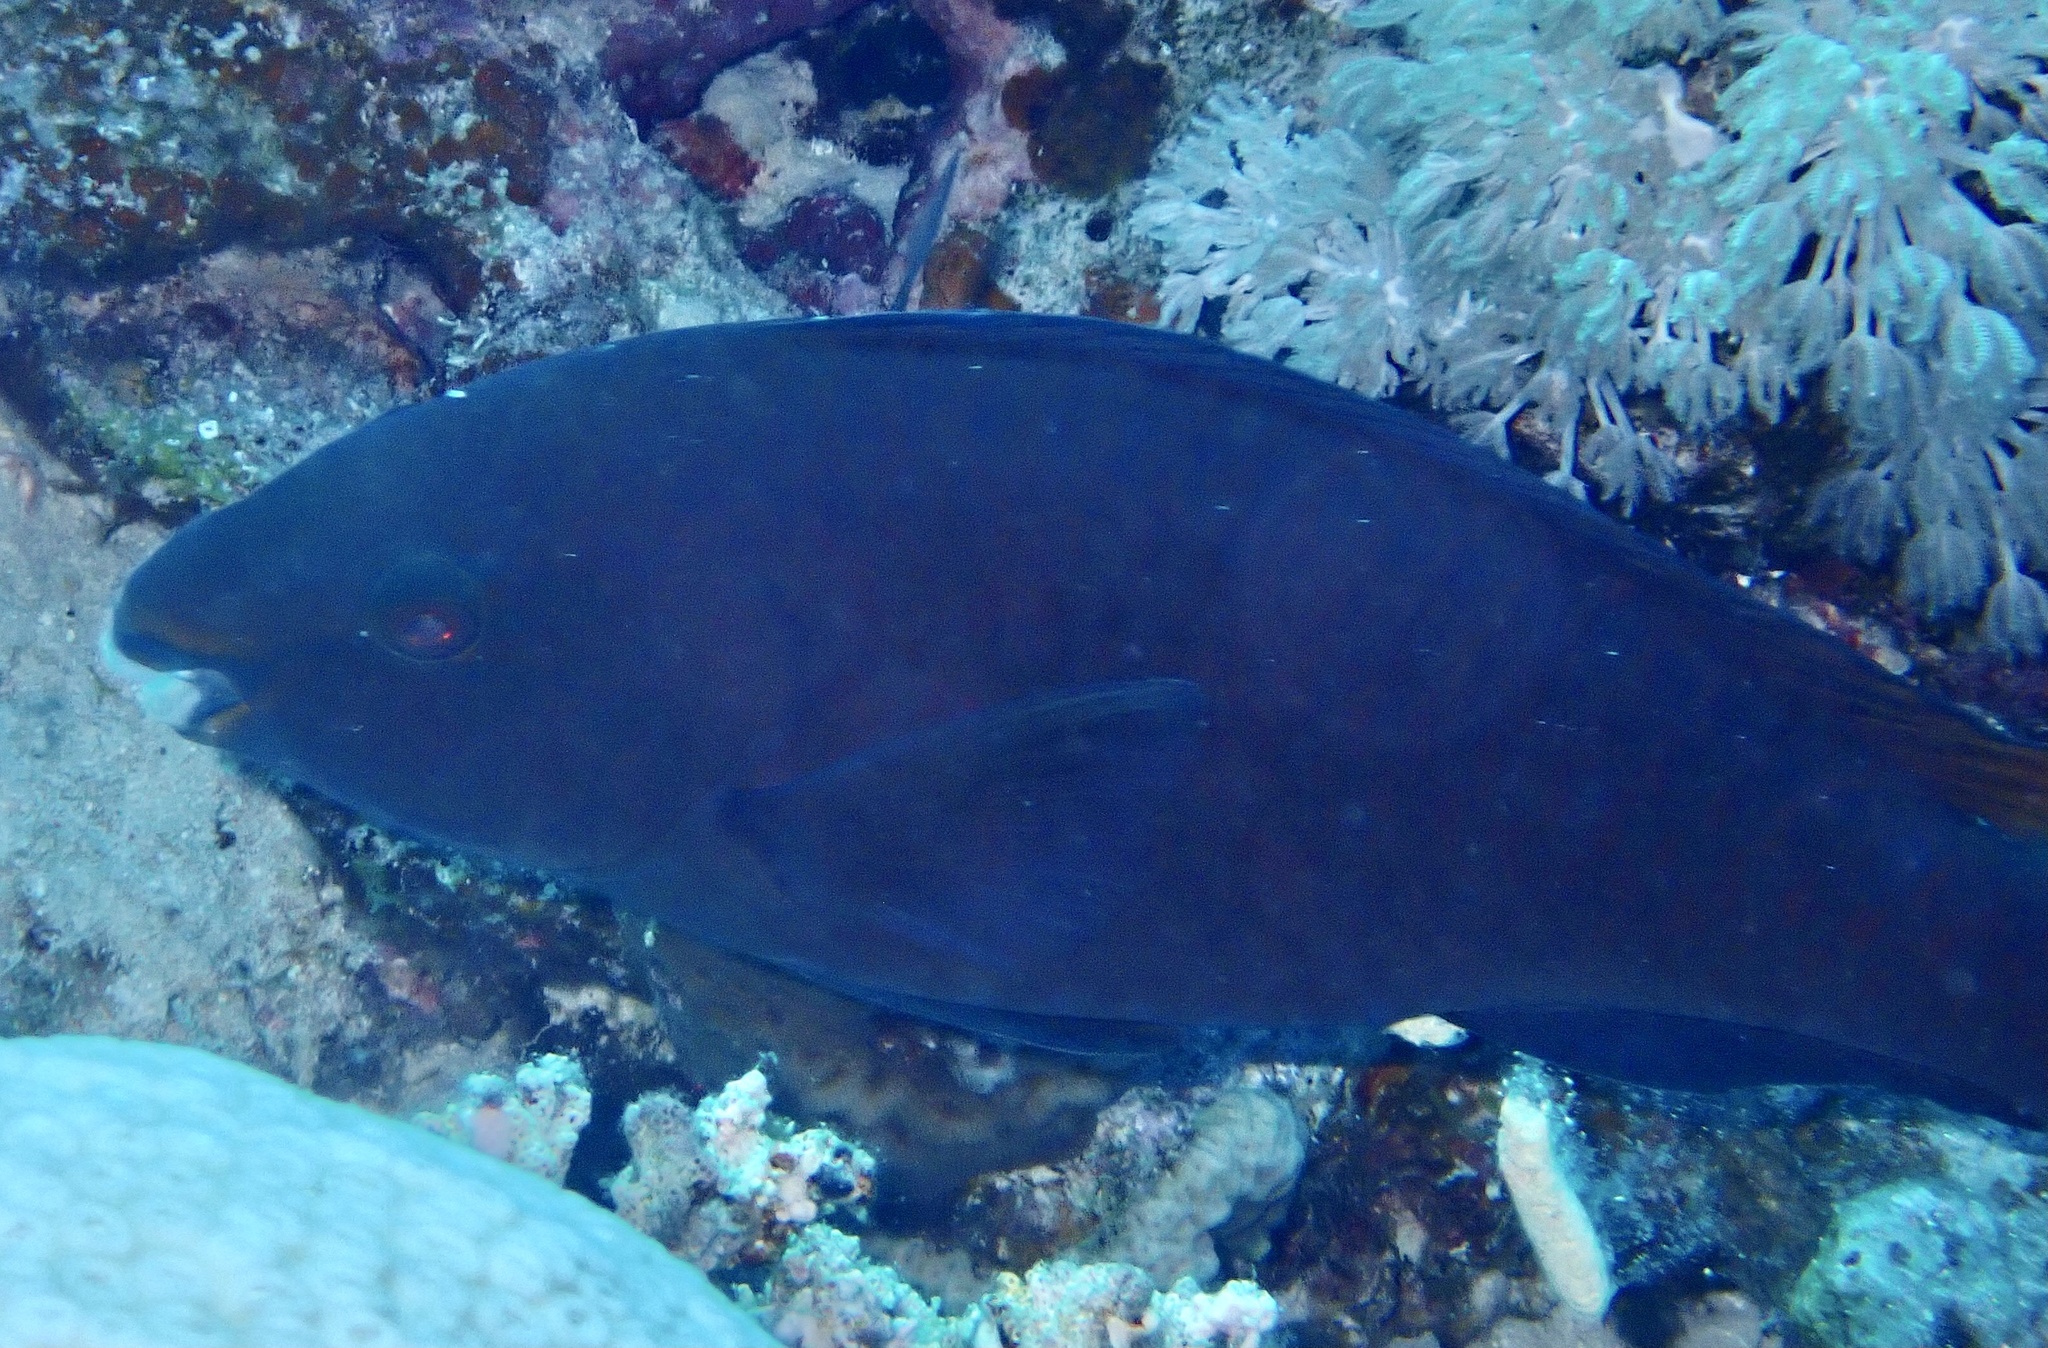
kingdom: Animalia
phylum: Chordata
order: Perciformes
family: Scaridae
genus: Scarus
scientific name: Scarus fuscopurpureus
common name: Purple-brown parrotfish
